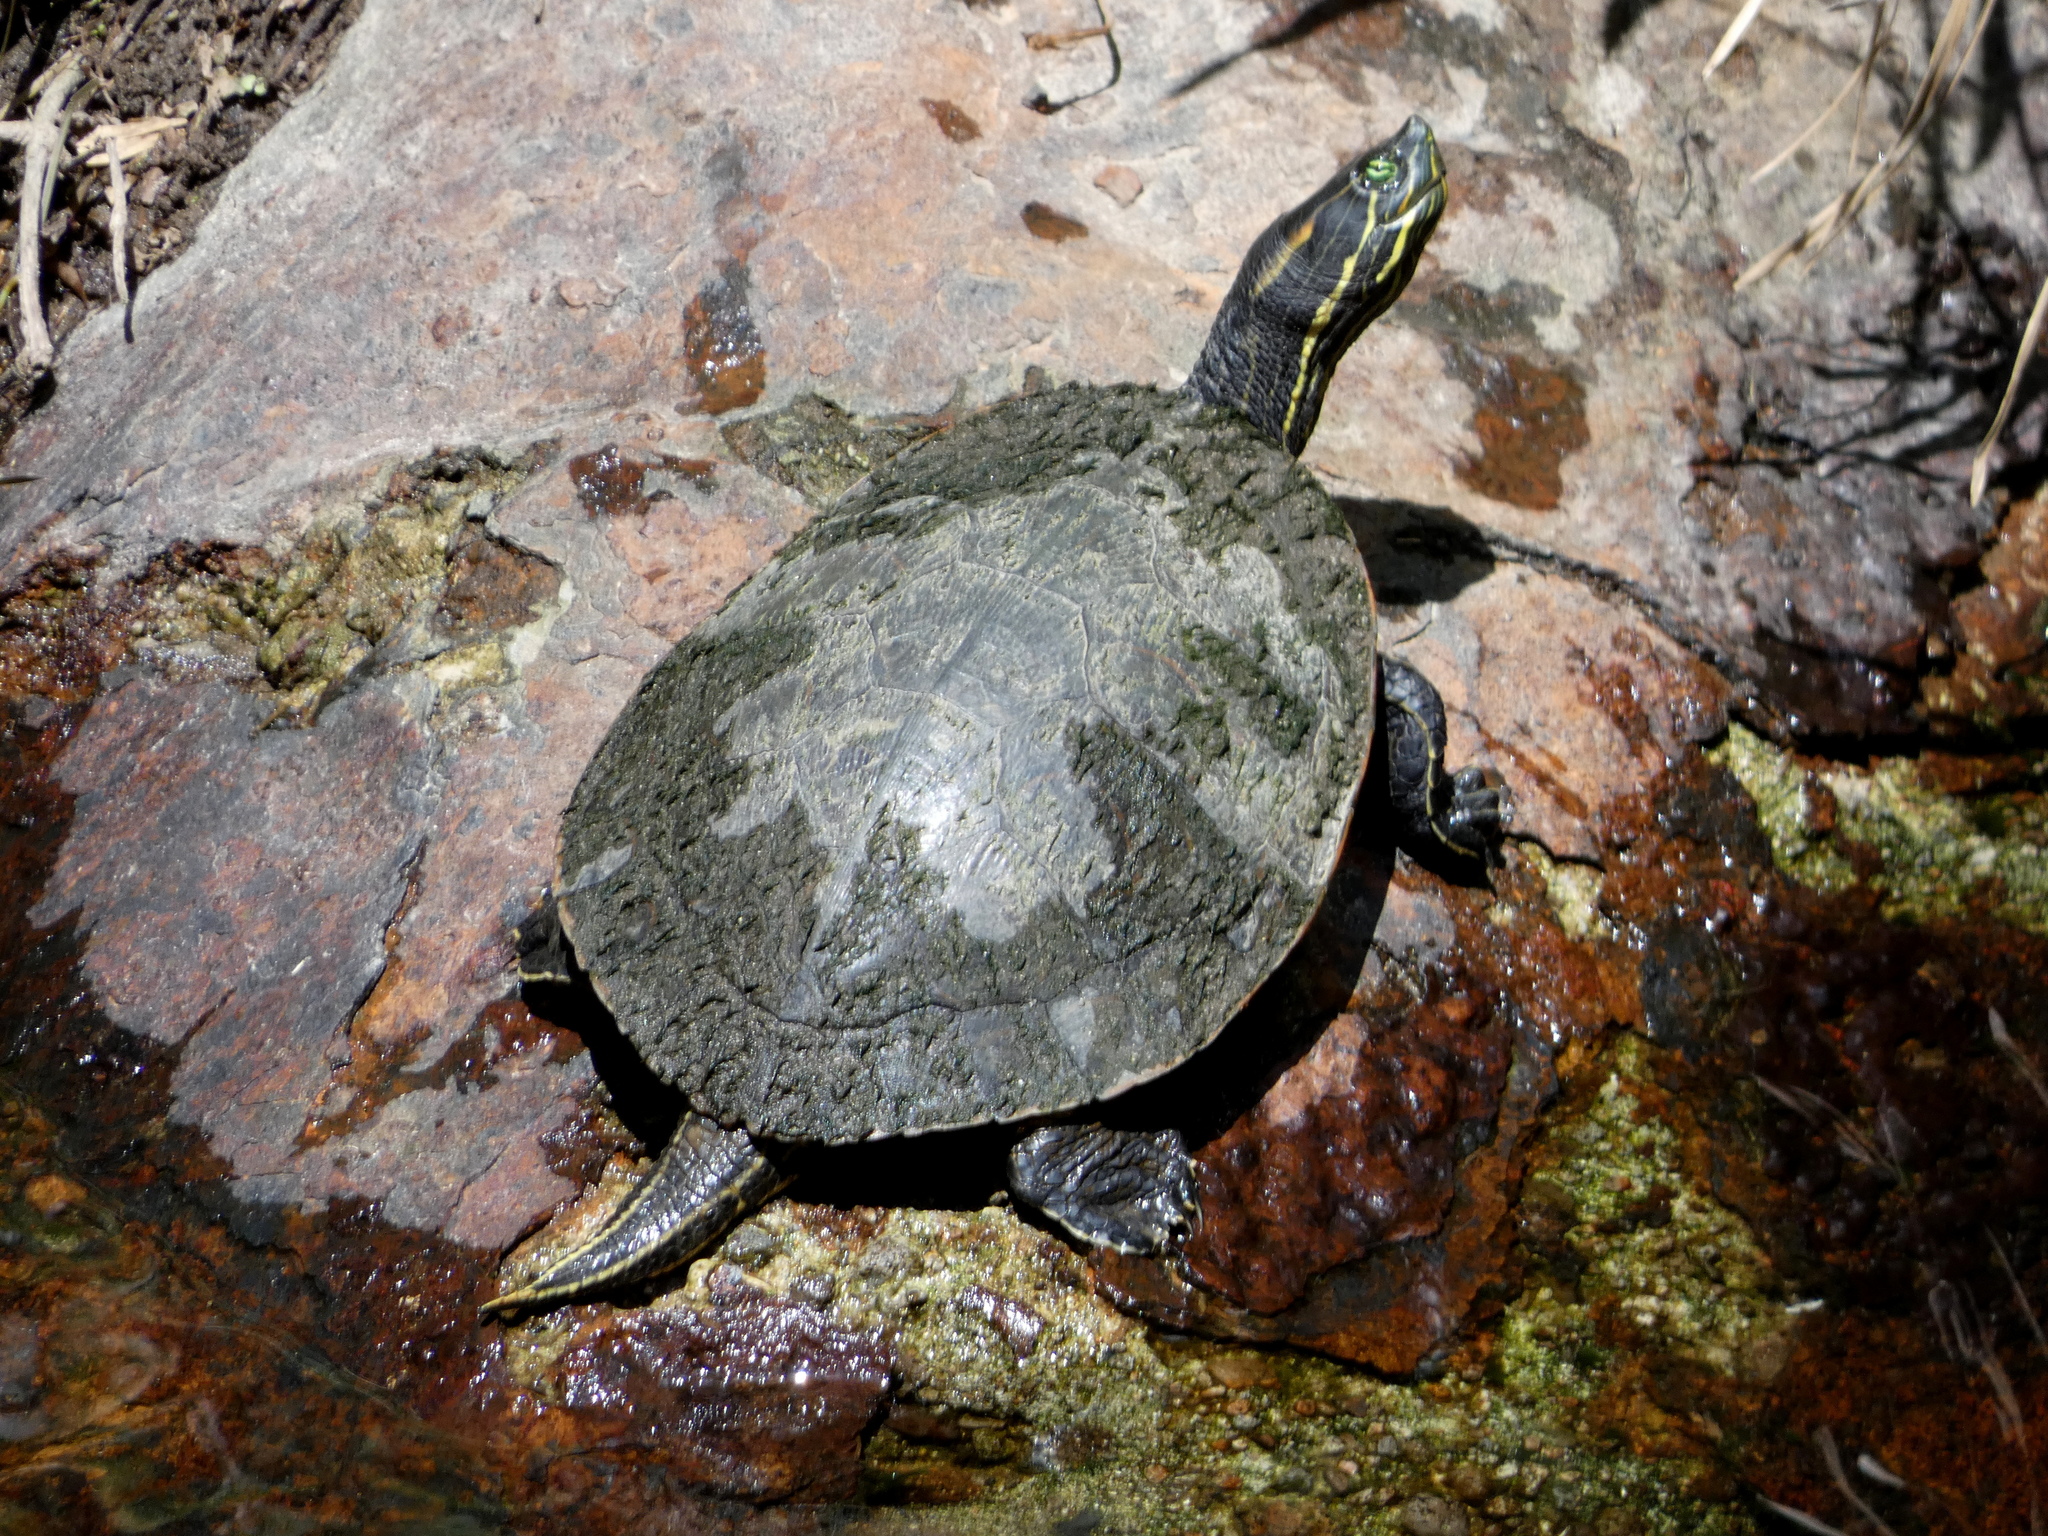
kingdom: Animalia
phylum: Chordata
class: Testudines
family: Emydidae
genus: Trachemys
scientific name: Trachemys grayi
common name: Gray's slider
